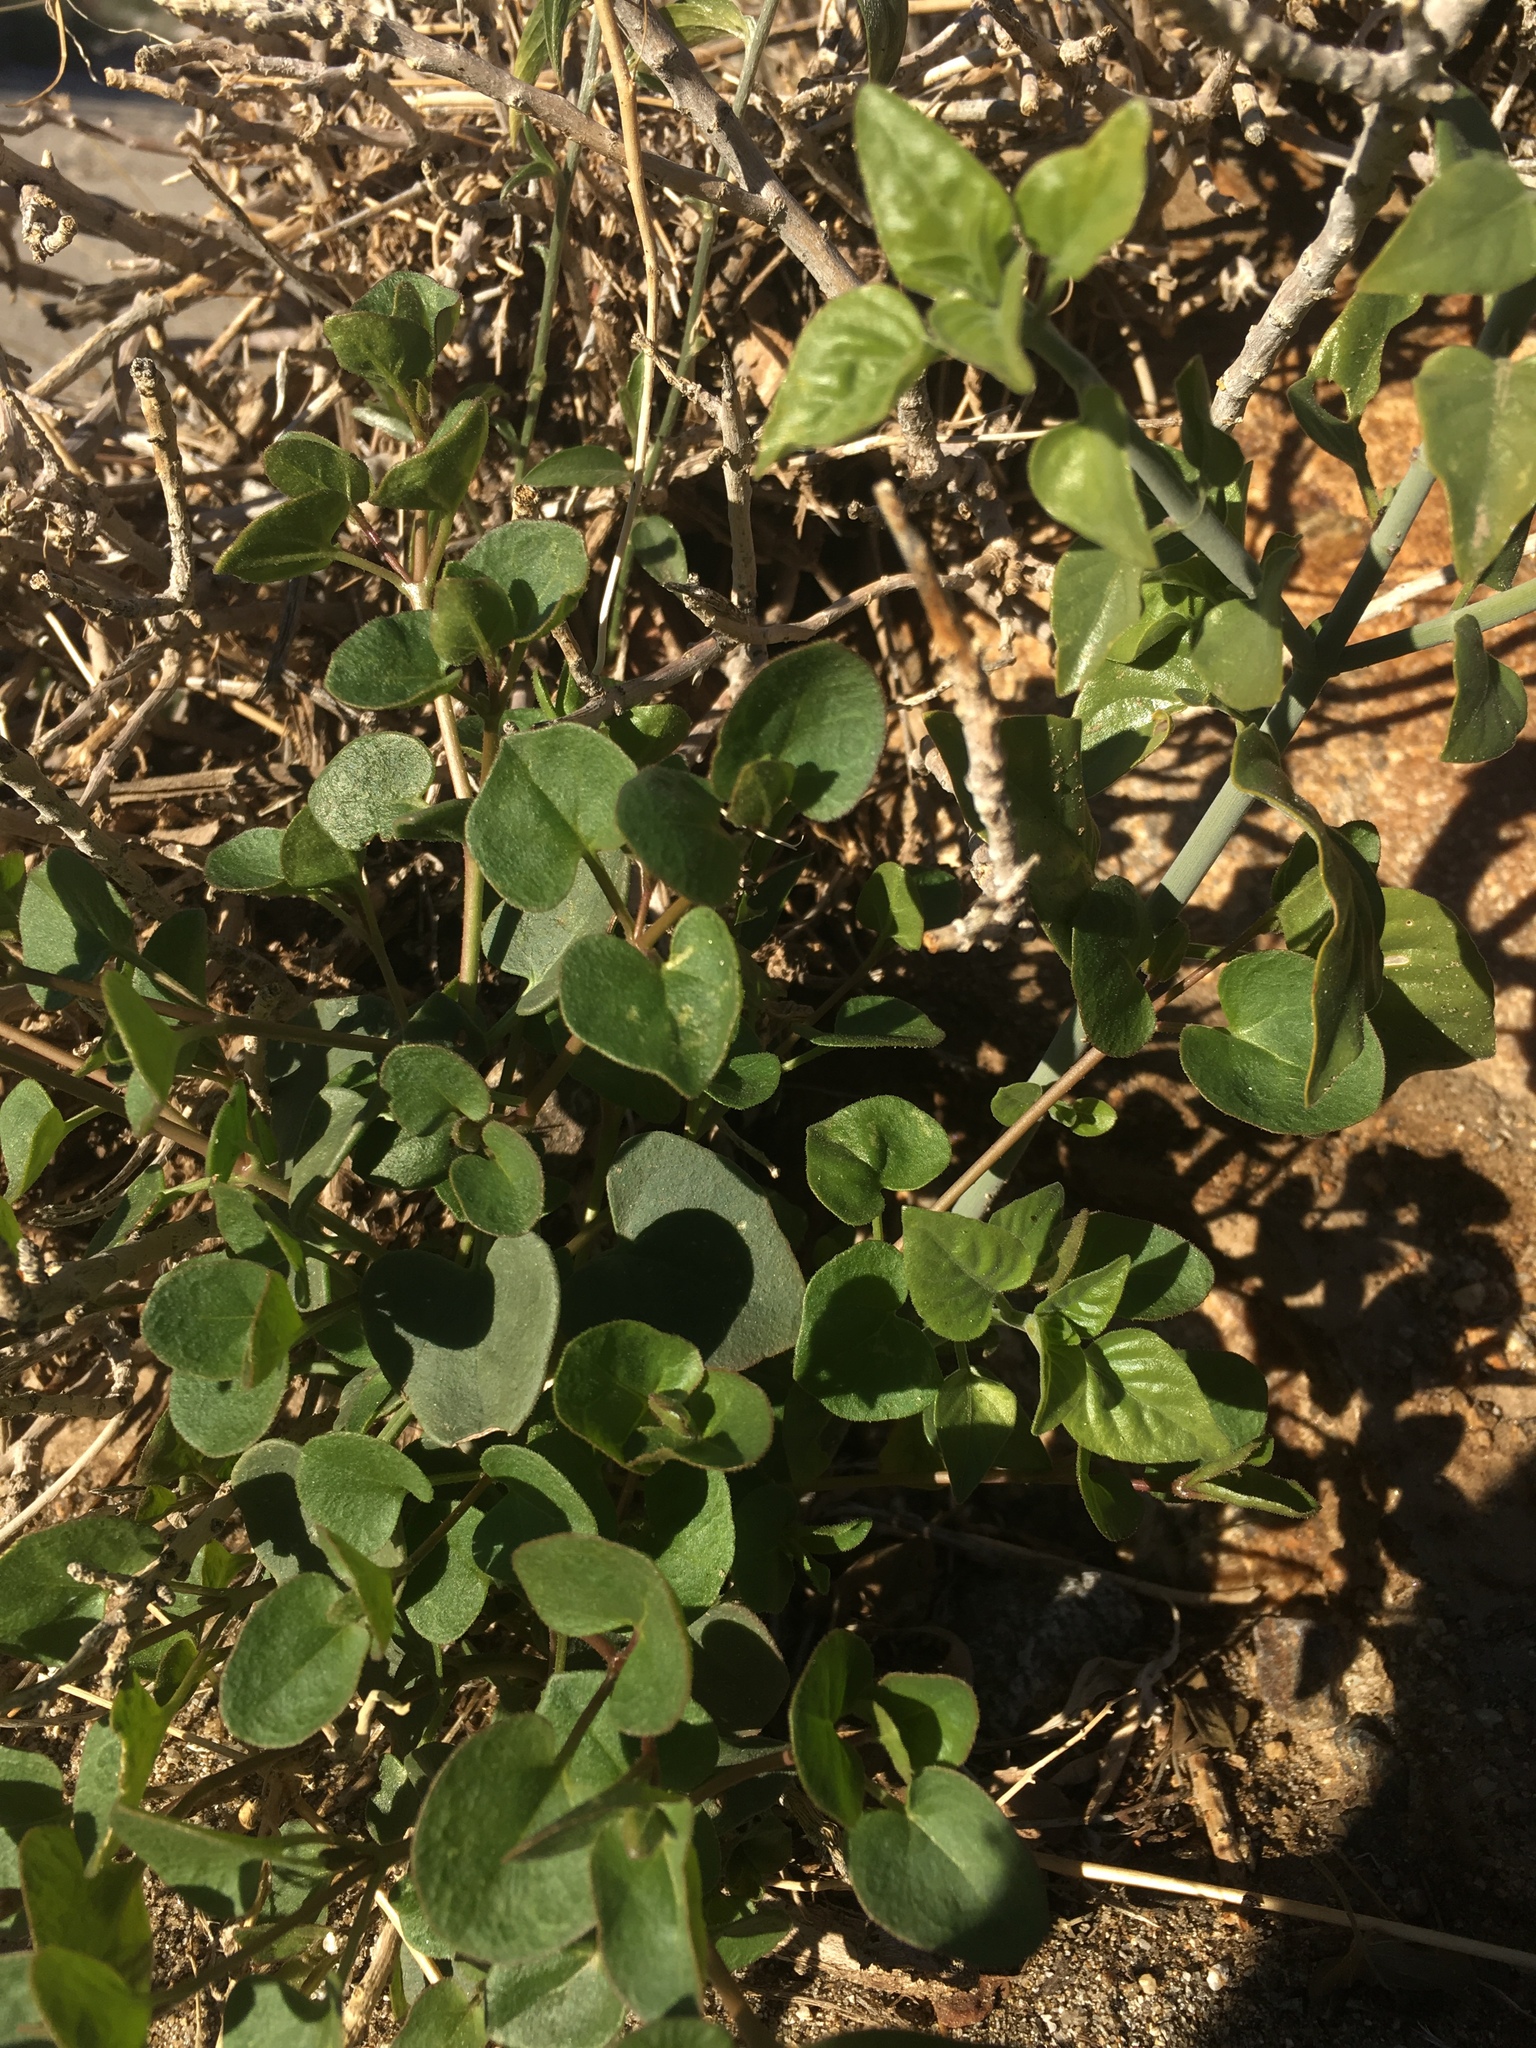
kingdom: Plantae
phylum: Tracheophyta
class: Magnoliopsida
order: Caryophyllales
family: Nyctaginaceae
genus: Mirabilis
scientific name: Mirabilis laevis
